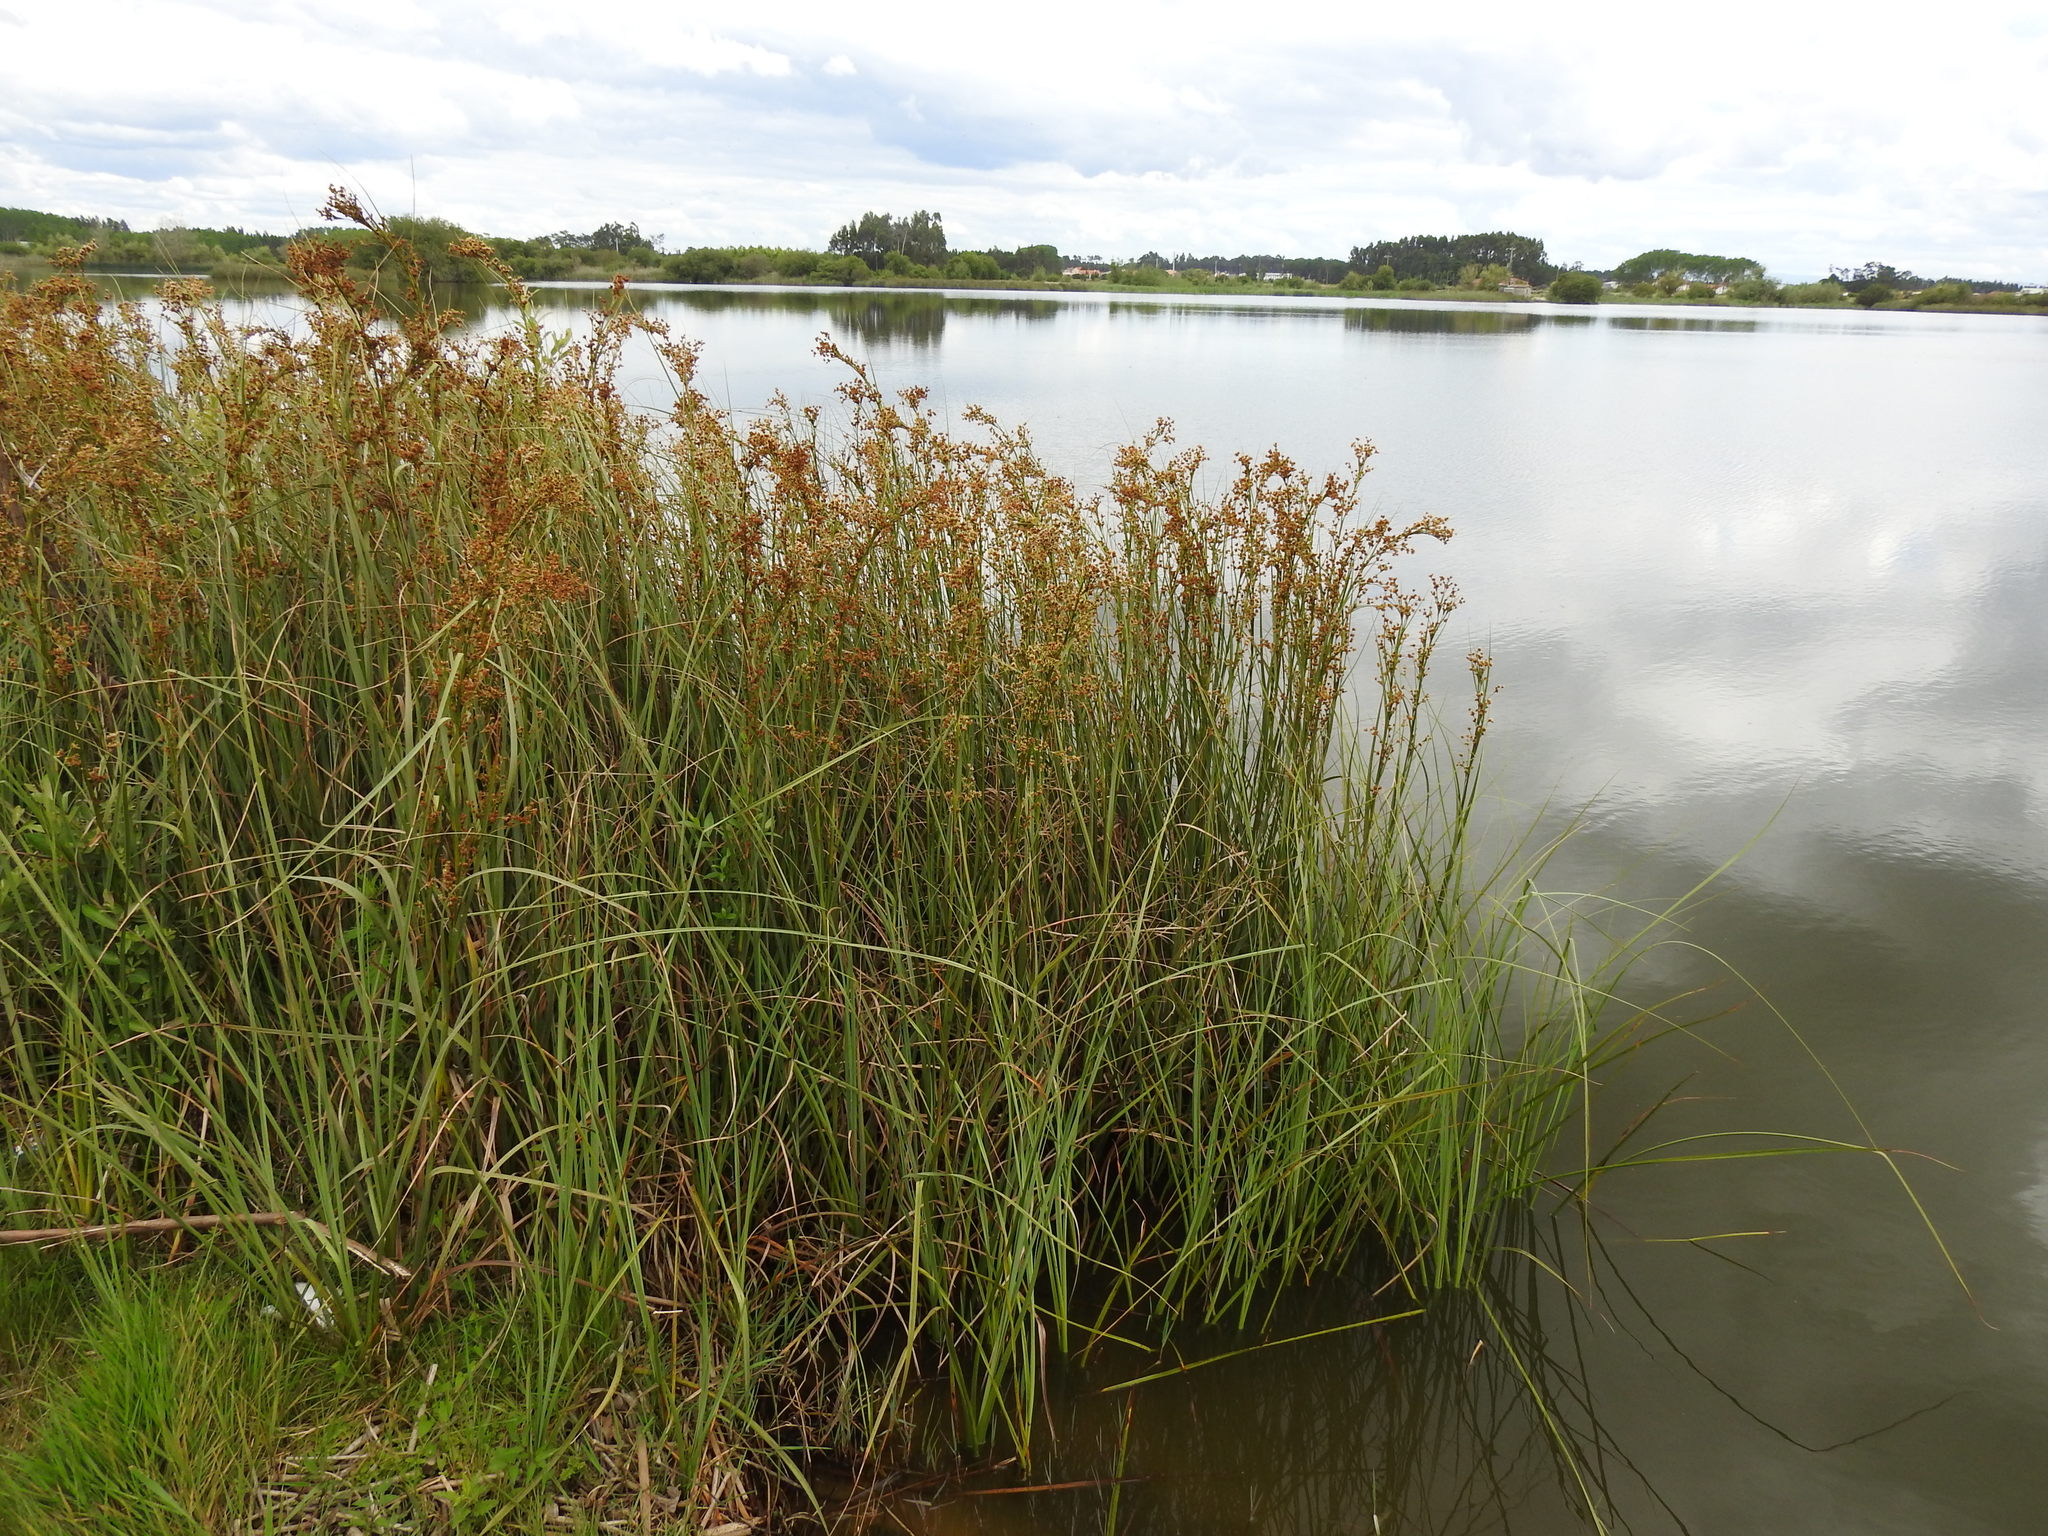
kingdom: Plantae
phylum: Tracheophyta
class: Liliopsida
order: Poales
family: Cyperaceae
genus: Cladium
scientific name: Cladium mariscus
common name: Great fen-sedge
